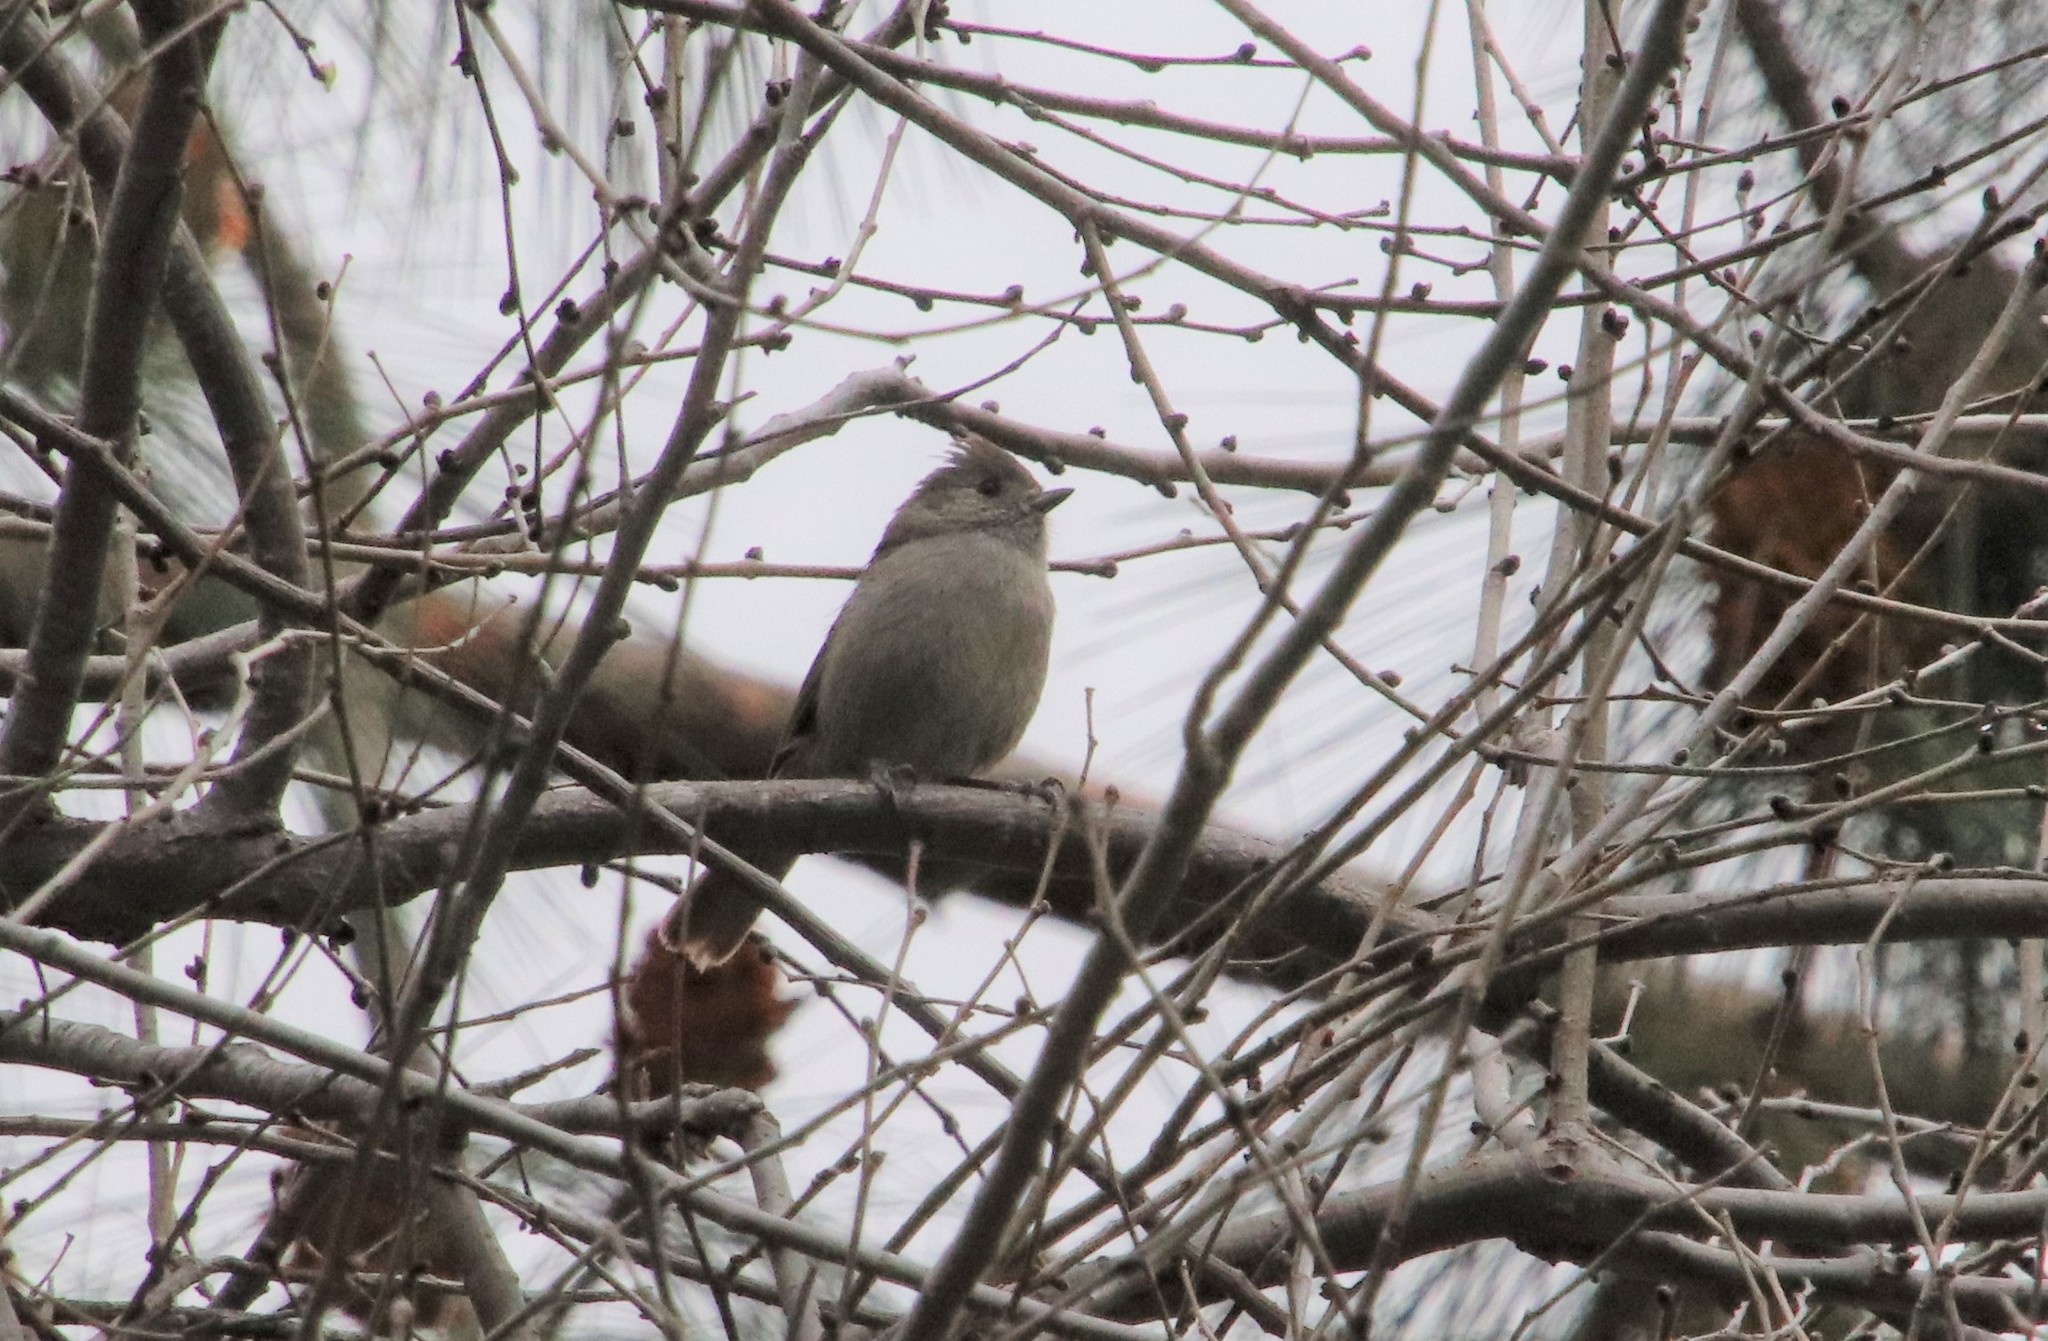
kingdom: Animalia
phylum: Chordata
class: Aves
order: Passeriformes
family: Paridae
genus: Baeolophus
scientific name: Baeolophus inornatus
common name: Oak titmouse
